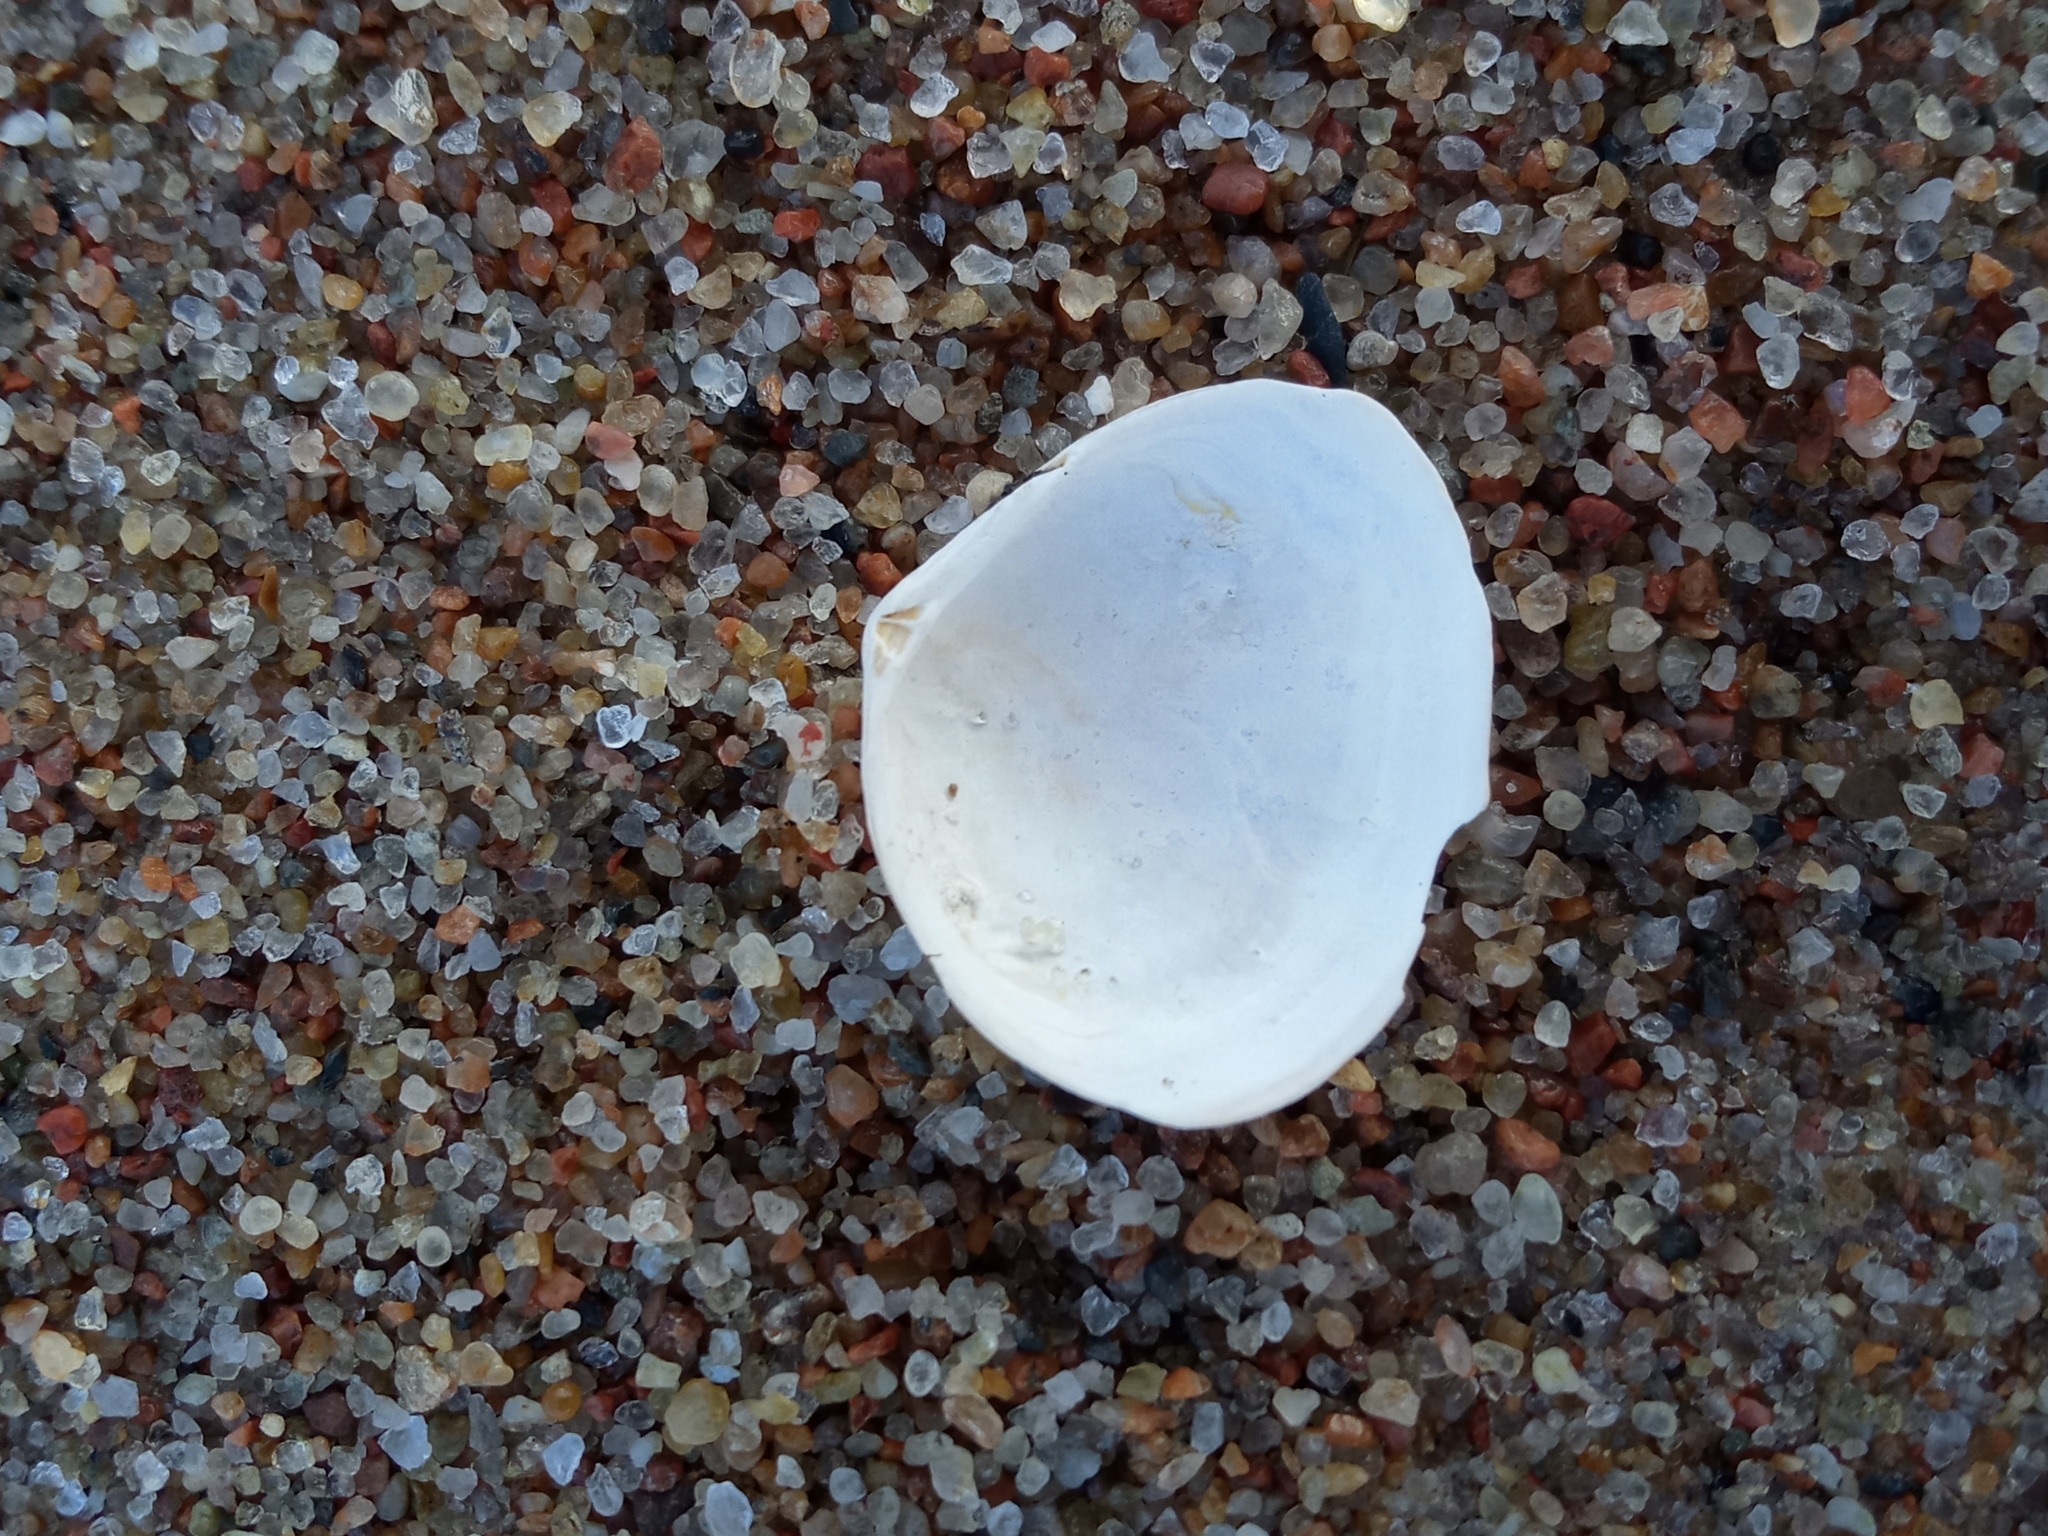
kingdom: Animalia
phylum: Mollusca
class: Bivalvia
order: Cardiida
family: Tellinidae
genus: Macoma
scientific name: Macoma balthica
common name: Baltic tellin
